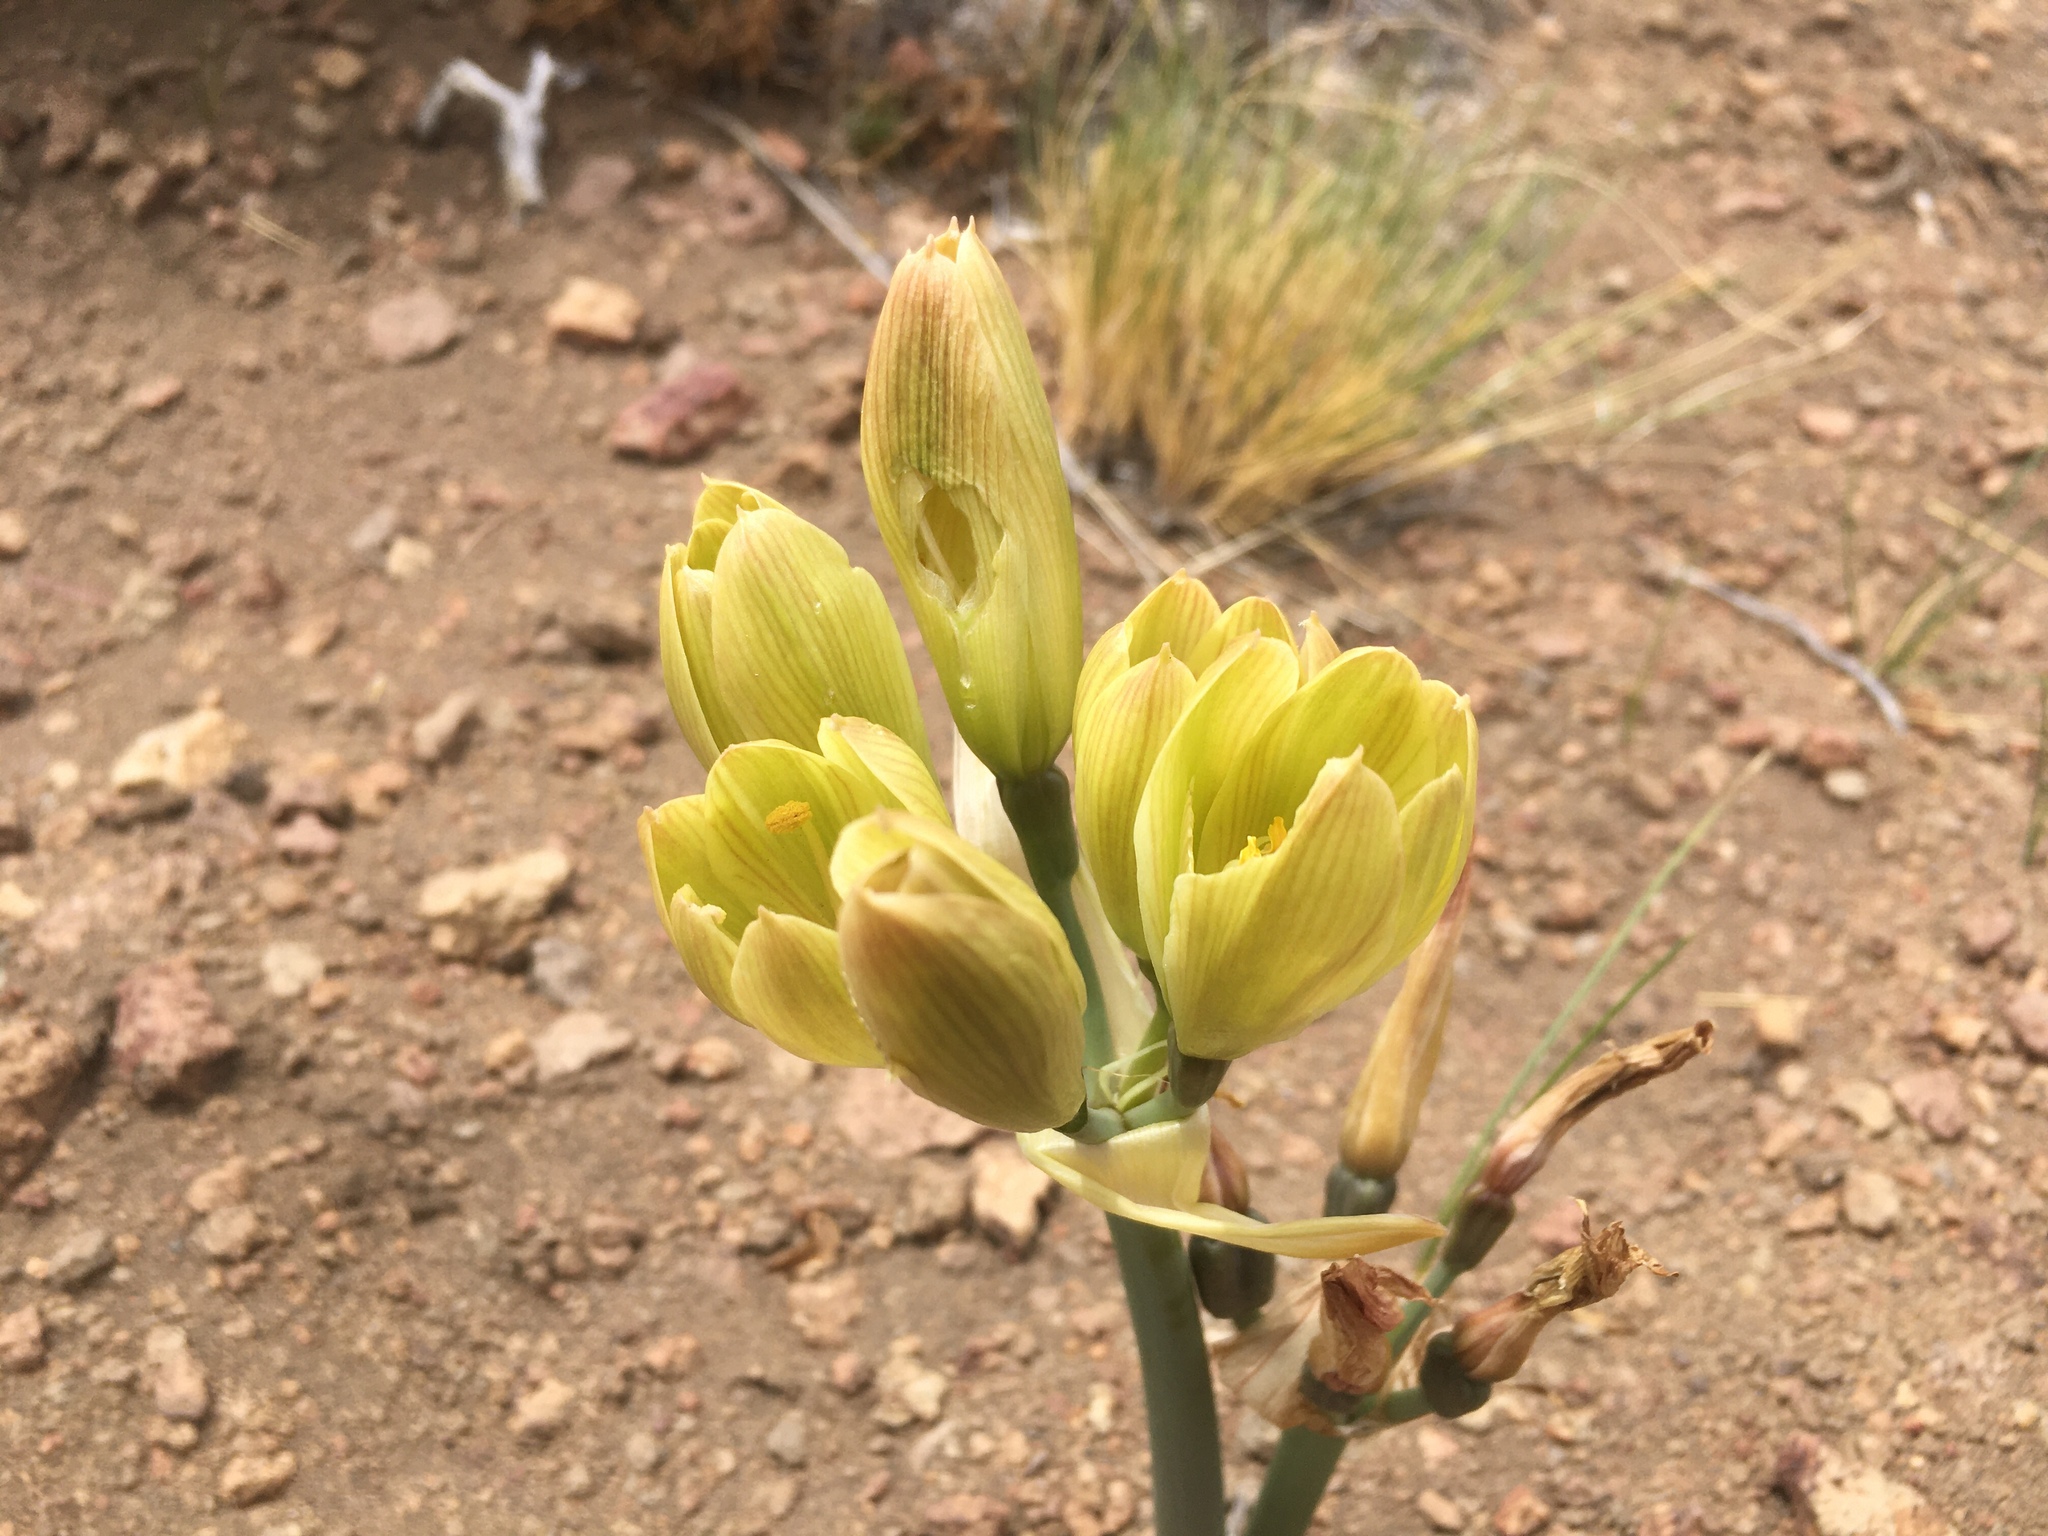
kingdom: Plantae
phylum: Tracheophyta
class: Liliopsida
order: Asparagales
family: Amaryllidaceae
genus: Zephyranthes
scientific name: Zephyranthes gilliesiana
